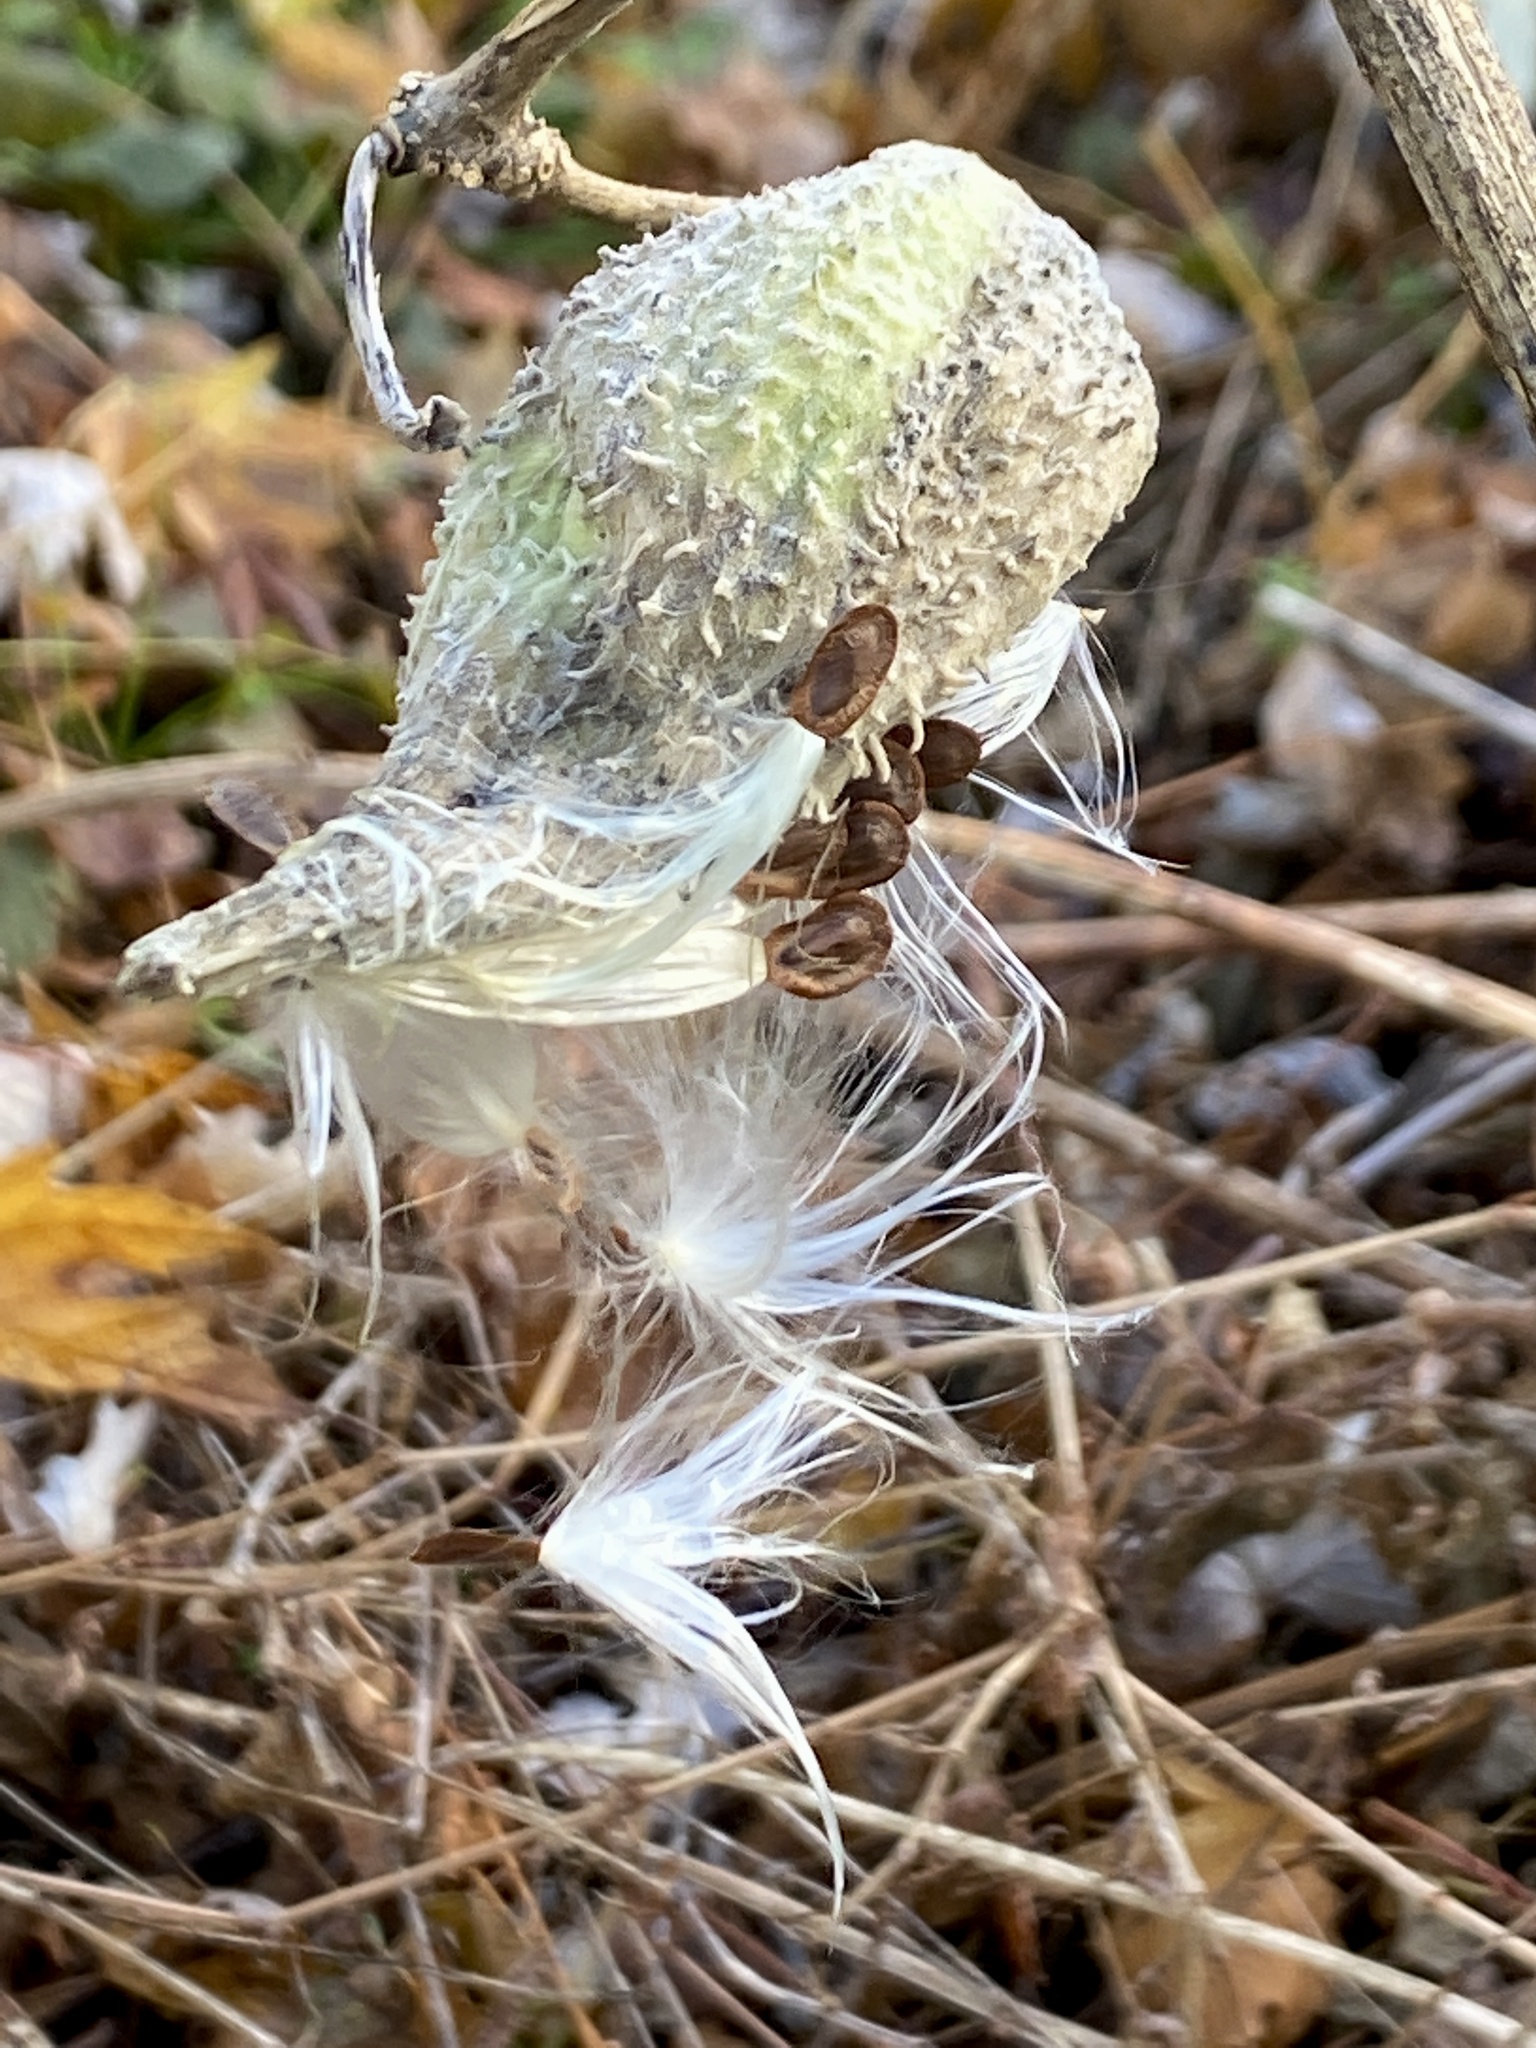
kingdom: Plantae
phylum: Tracheophyta
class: Magnoliopsida
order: Gentianales
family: Apocynaceae
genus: Asclepias
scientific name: Asclepias syriaca
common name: Common milkweed
